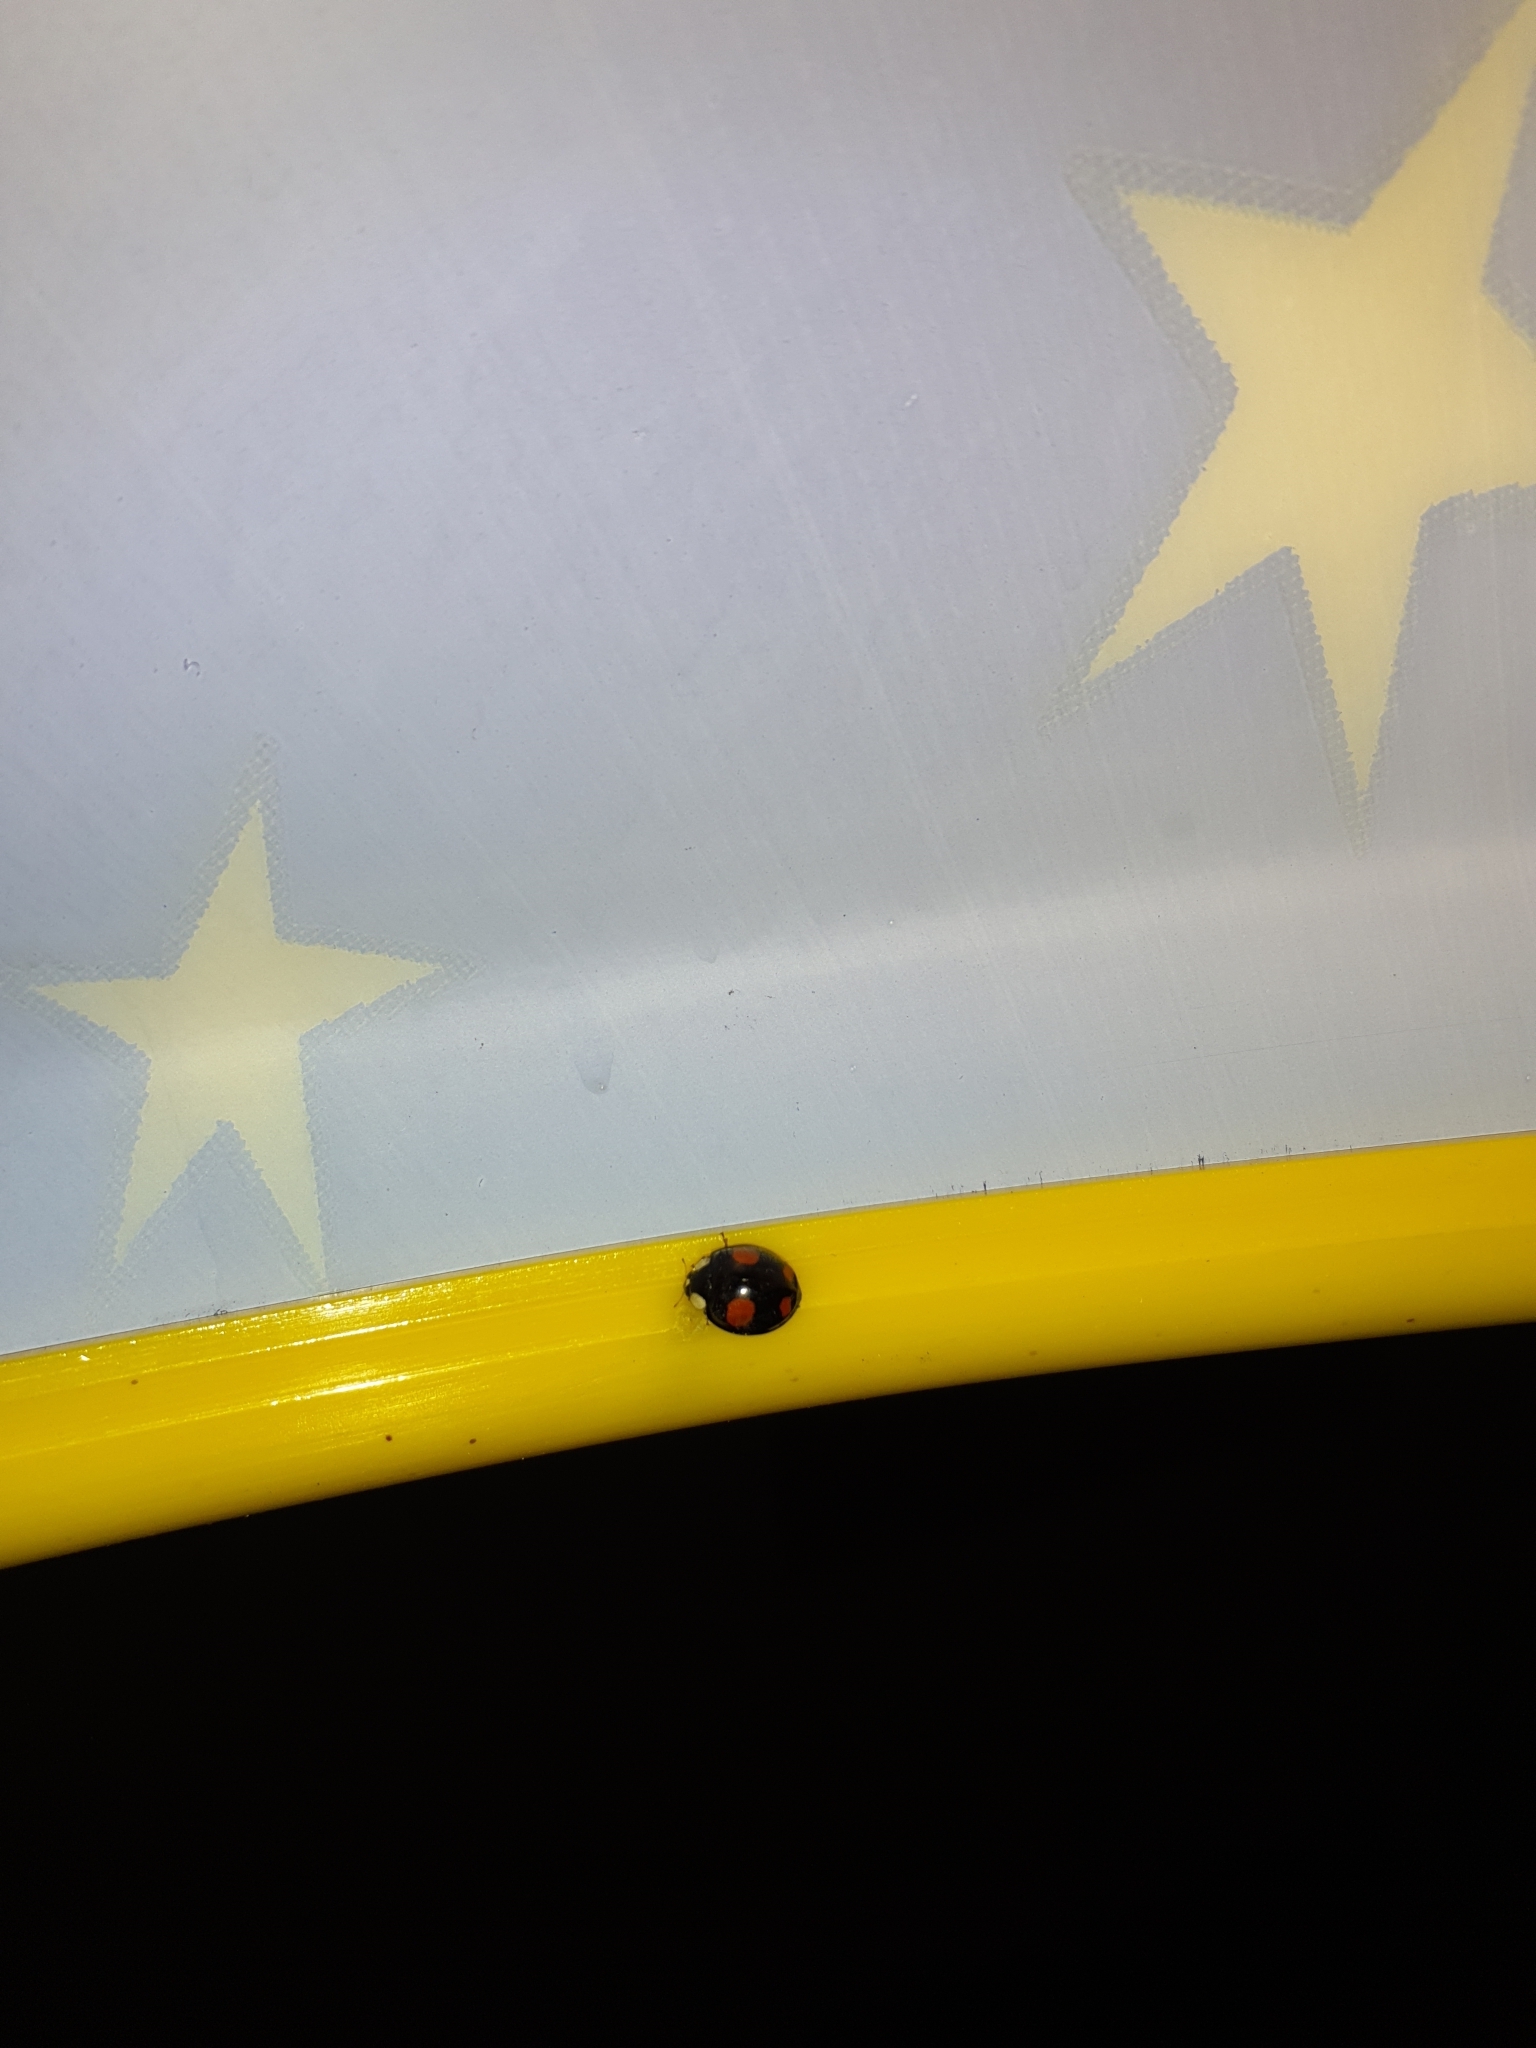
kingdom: Animalia
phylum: Arthropoda
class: Insecta
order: Coleoptera
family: Coccinellidae
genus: Harmonia
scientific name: Harmonia axyridis
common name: Harlequin ladybird
